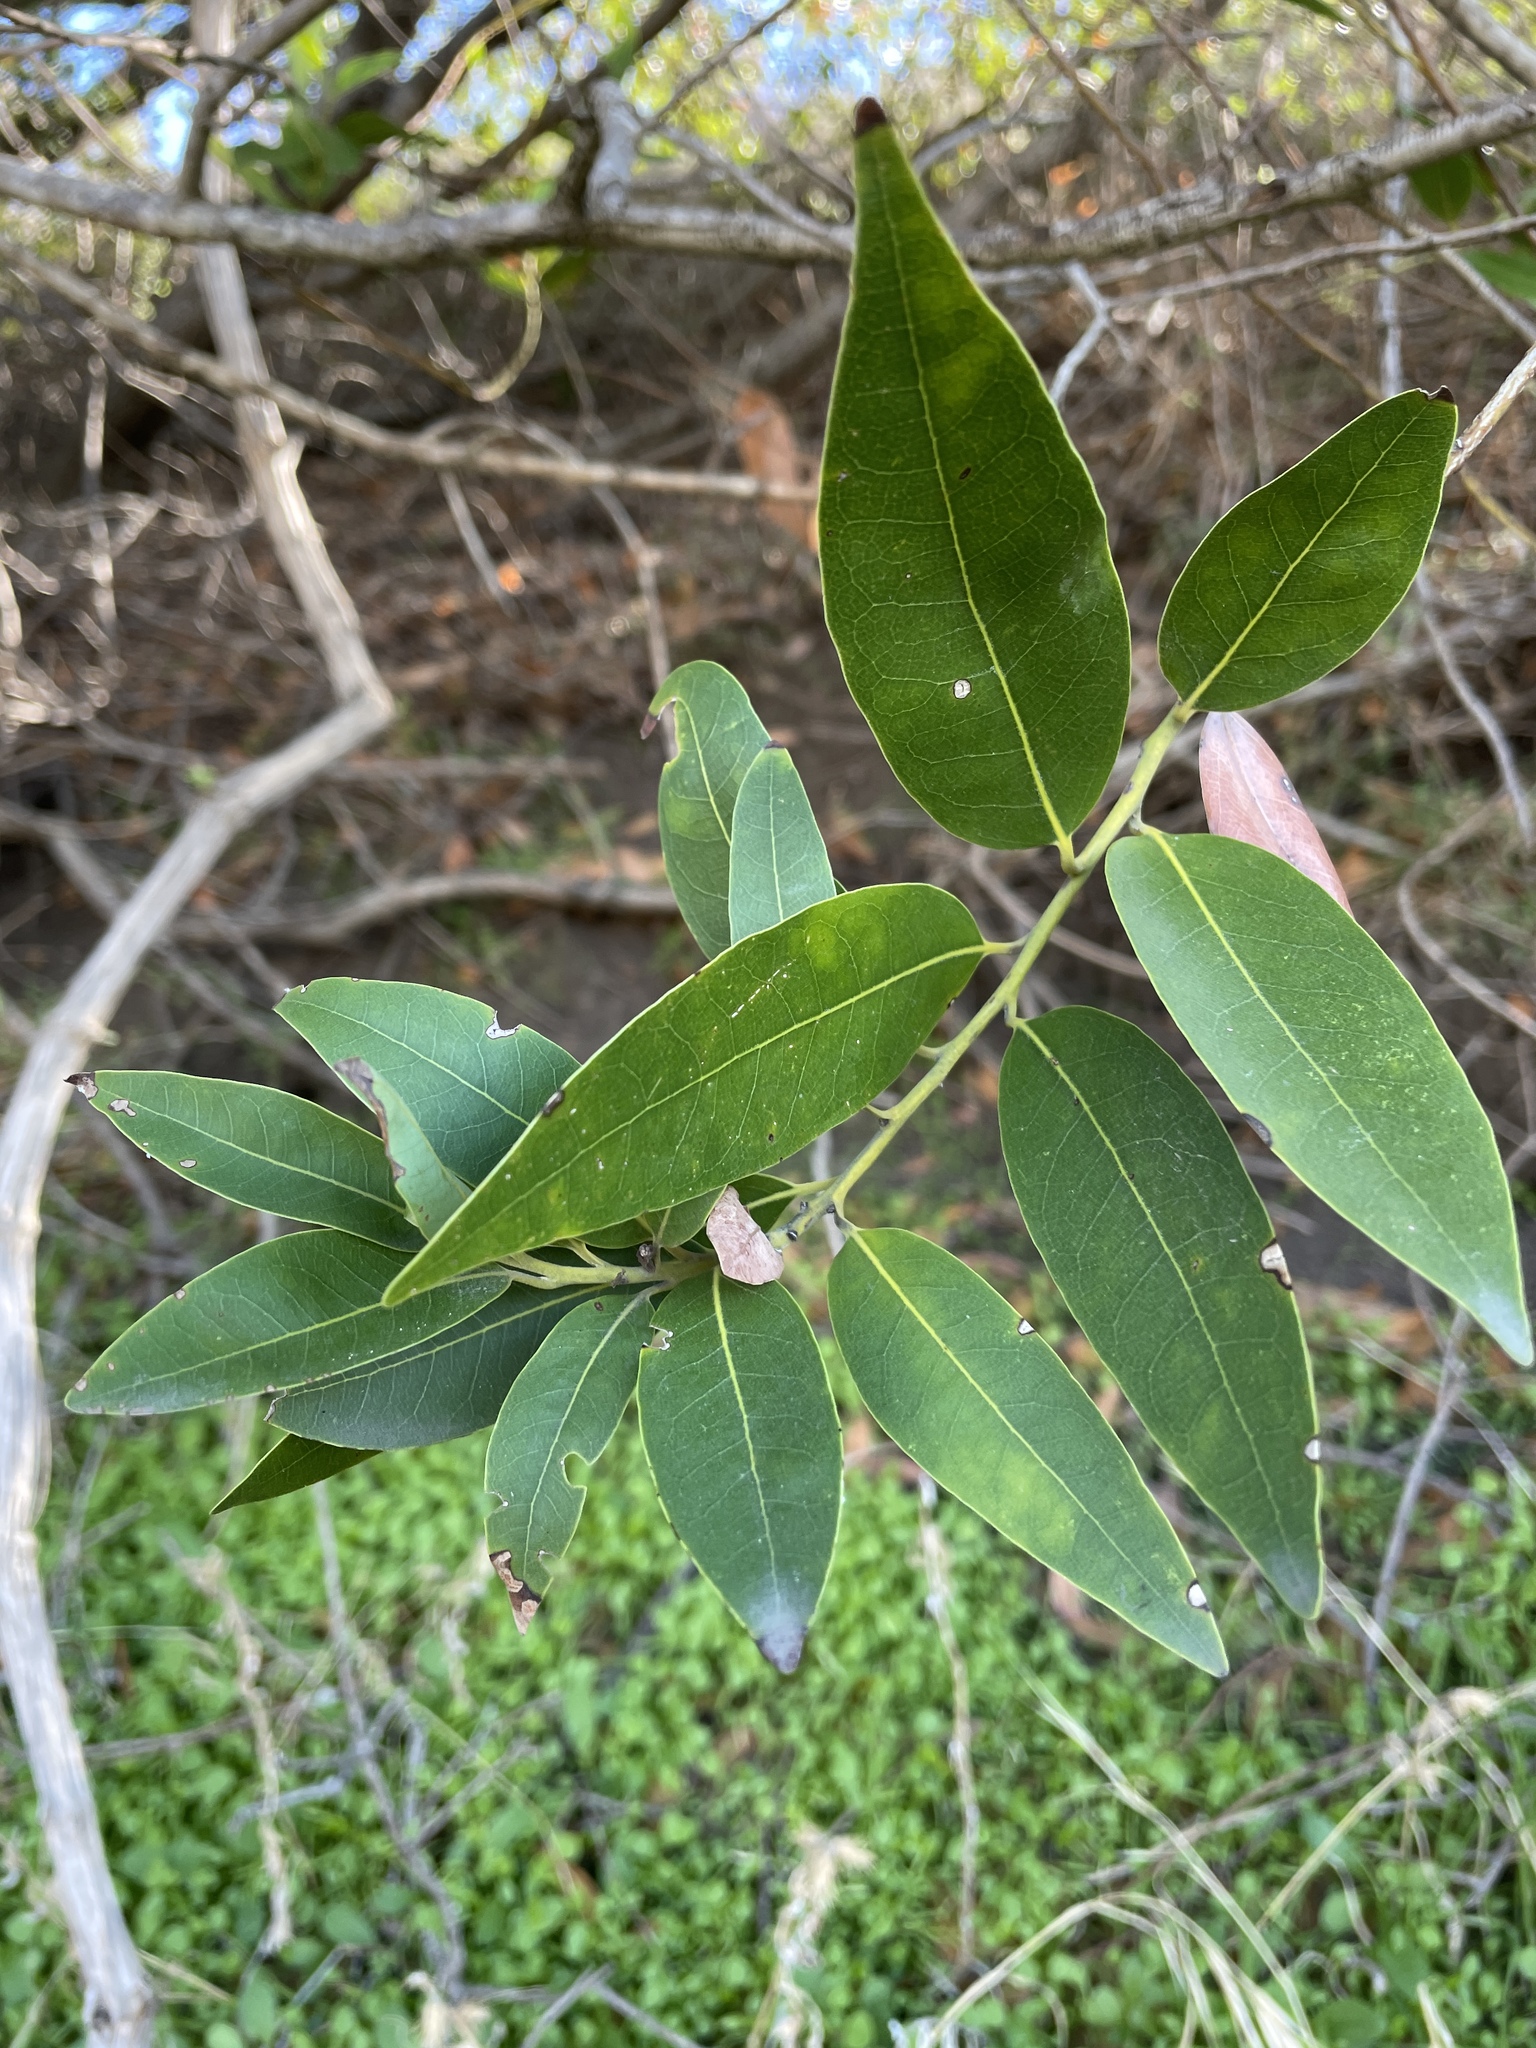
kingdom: Plantae
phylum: Tracheophyta
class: Magnoliopsida
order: Laurales
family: Lauraceae
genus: Umbellularia
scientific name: Umbellularia californica
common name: California bay
